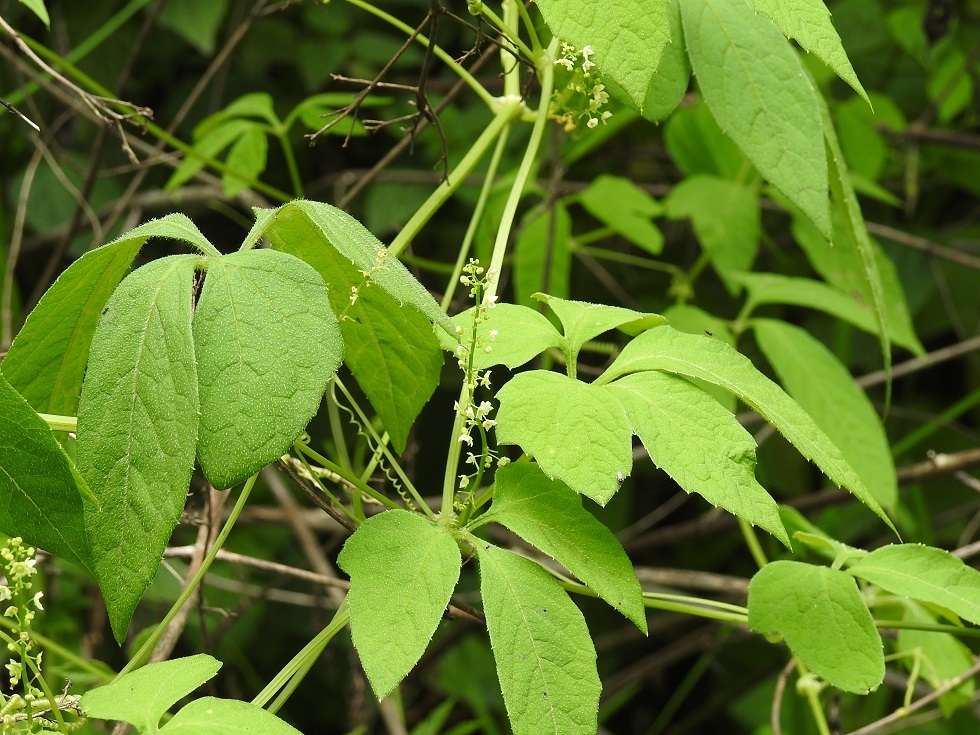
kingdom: Plantae
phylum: Tracheophyta
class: Magnoliopsida
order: Cucurbitales
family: Cucurbitaceae
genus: Cyclanthera
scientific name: Cyclanthera integrifoliola
